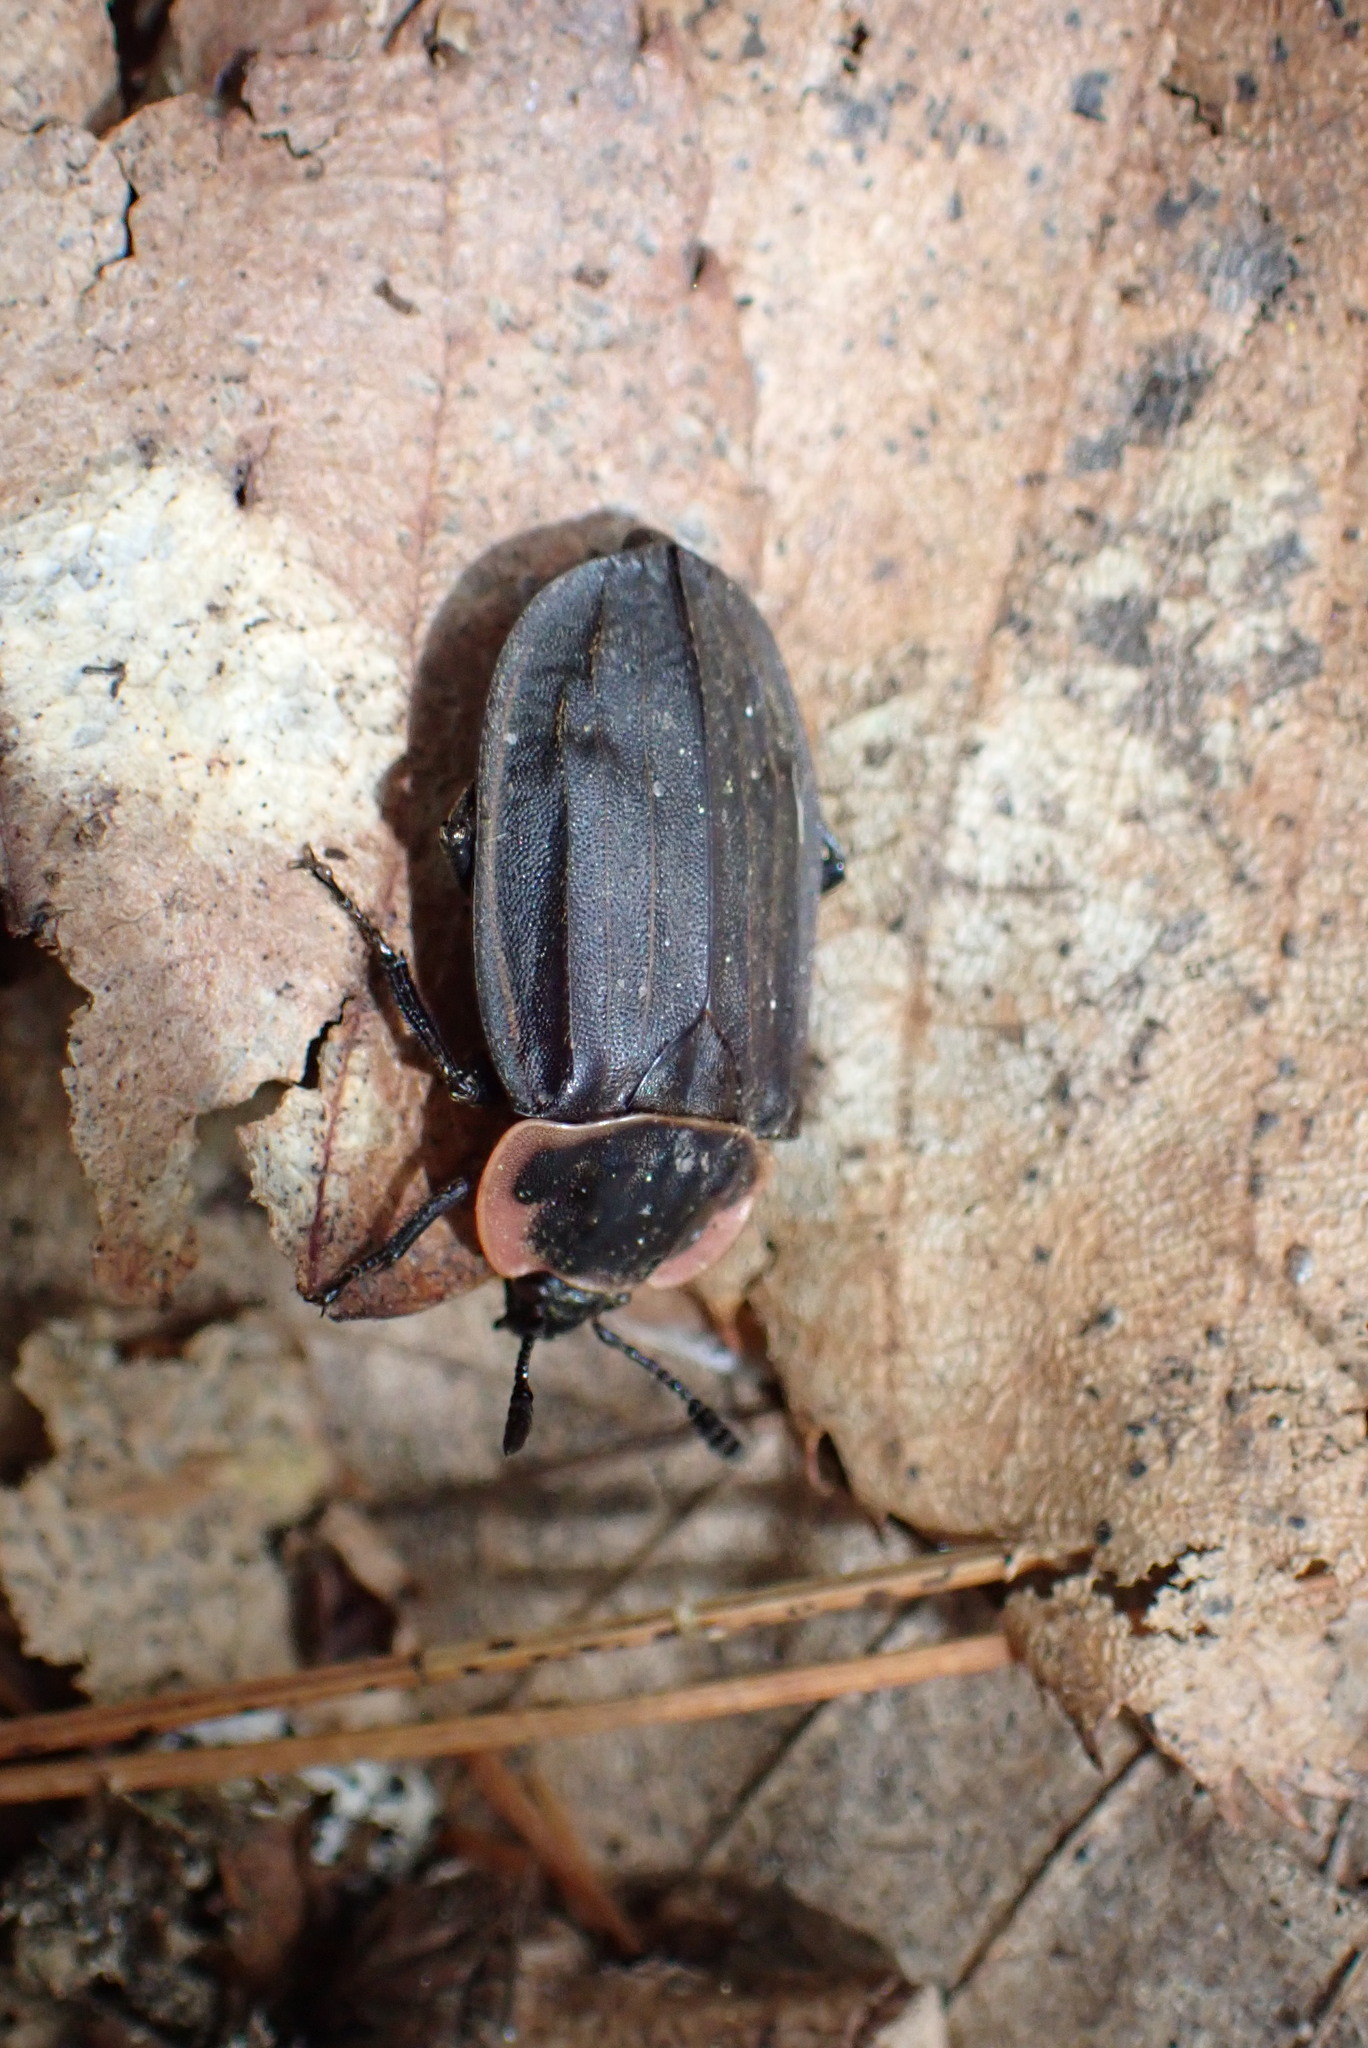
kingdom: Animalia
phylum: Arthropoda
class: Insecta
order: Coleoptera
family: Staphylinidae
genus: Oiceoptoma
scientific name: Oiceoptoma noveboracense
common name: Margined carrion beetle
